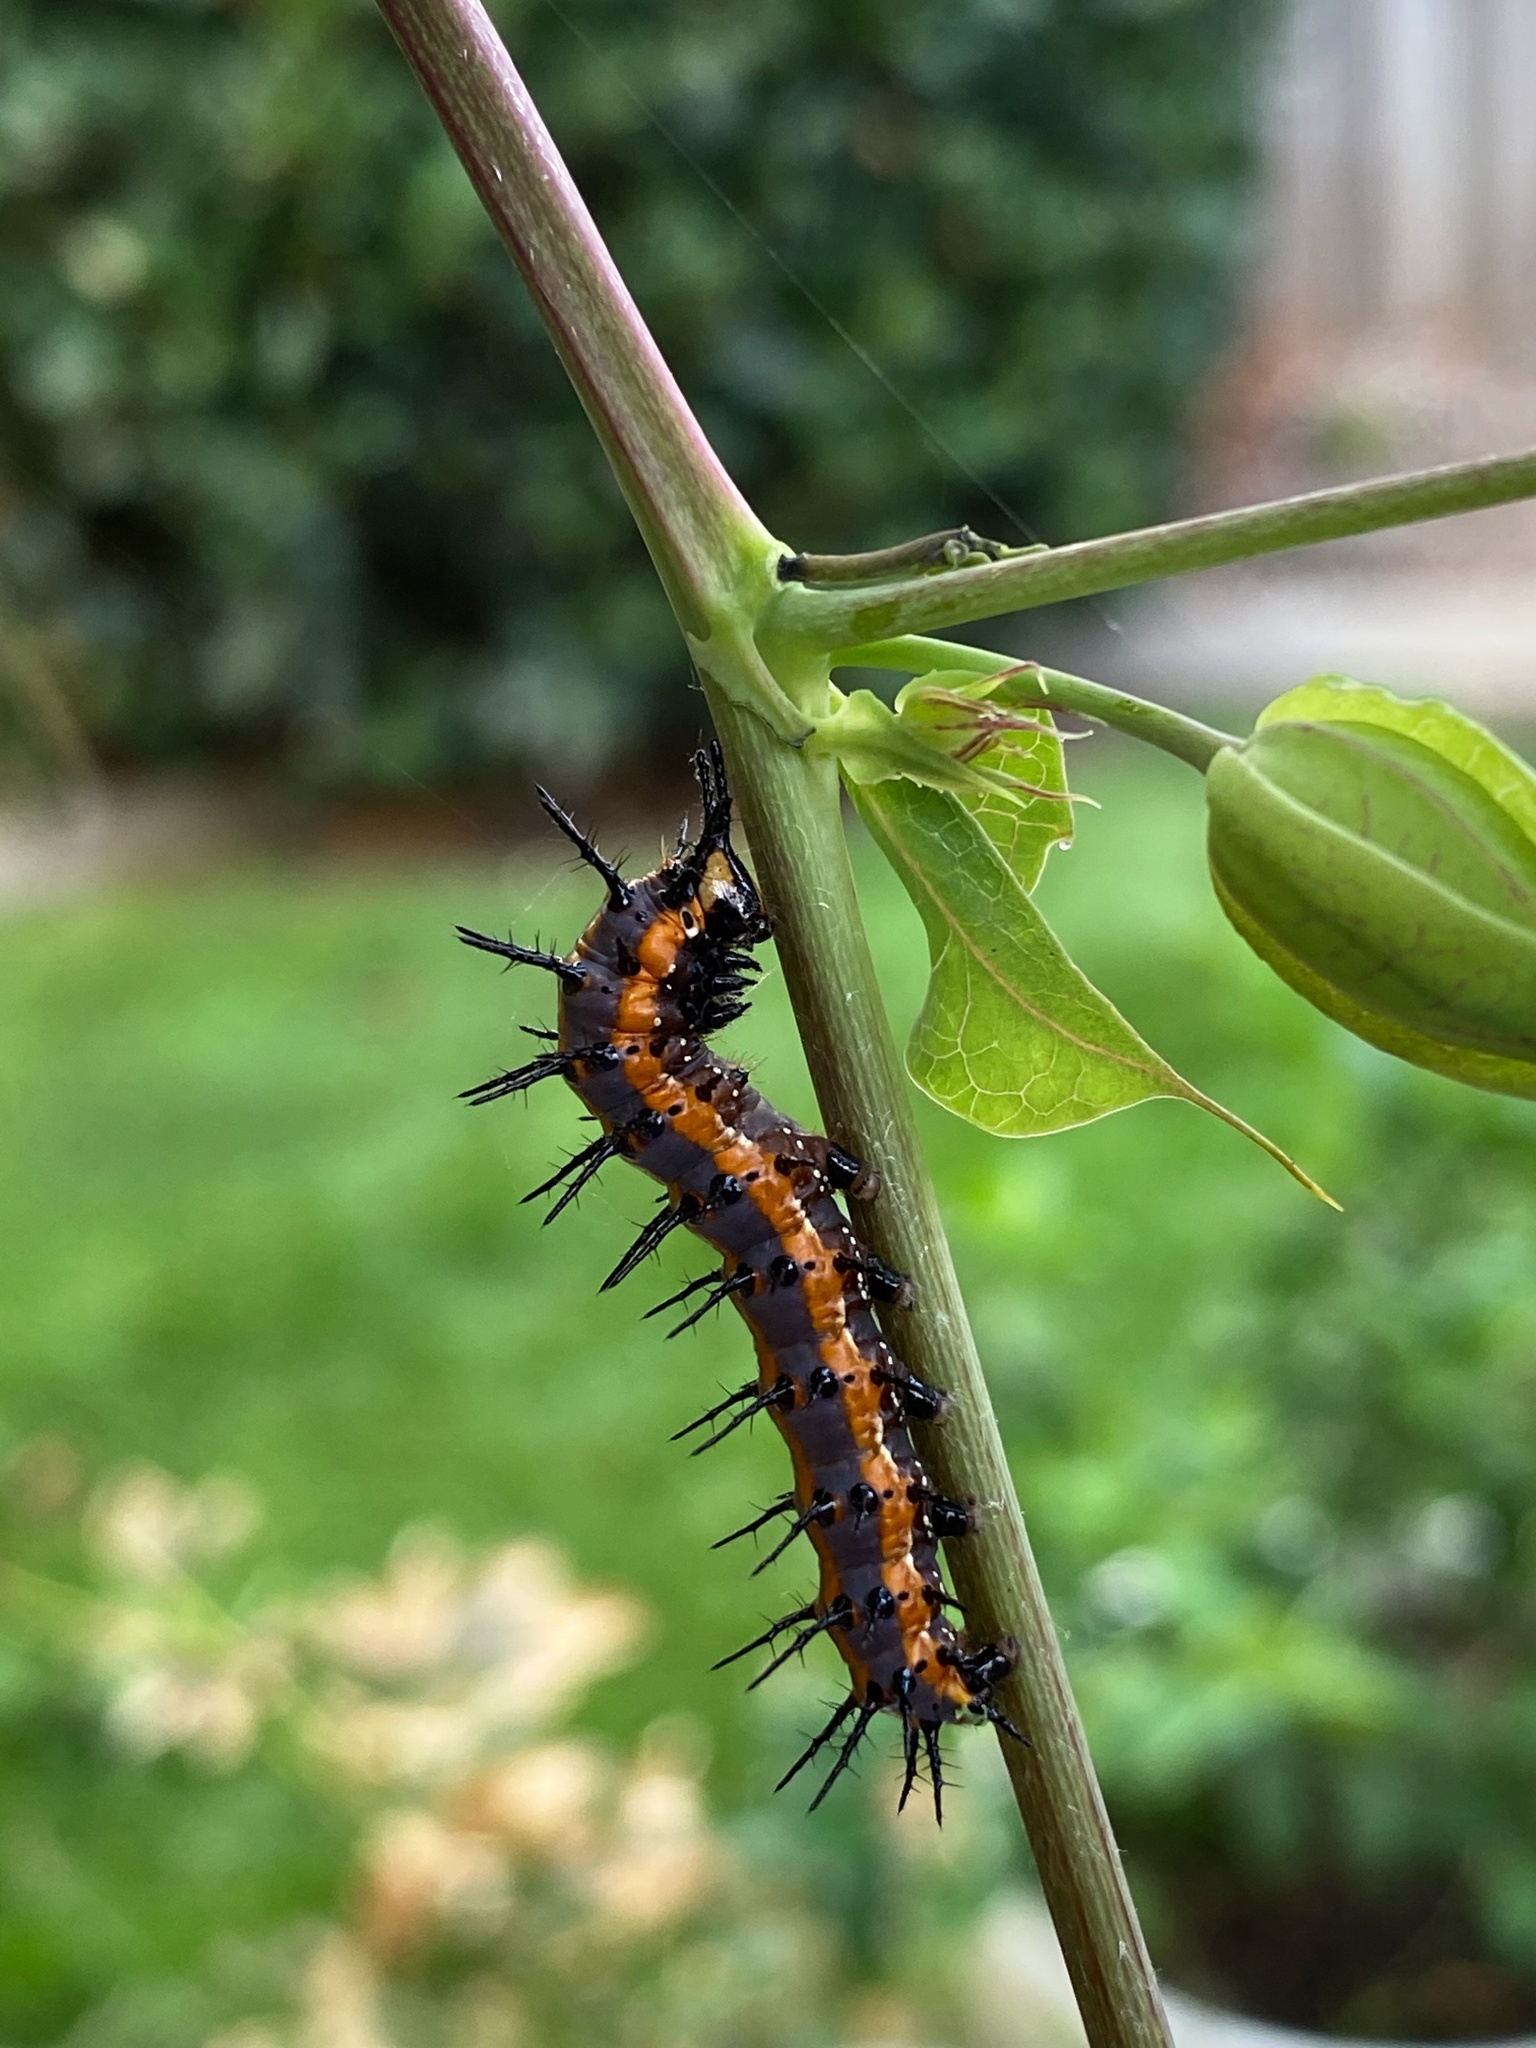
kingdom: Animalia
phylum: Arthropoda
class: Insecta
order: Lepidoptera
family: Nymphalidae
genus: Dione
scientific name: Dione vanillae
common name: Gulf fritillary
